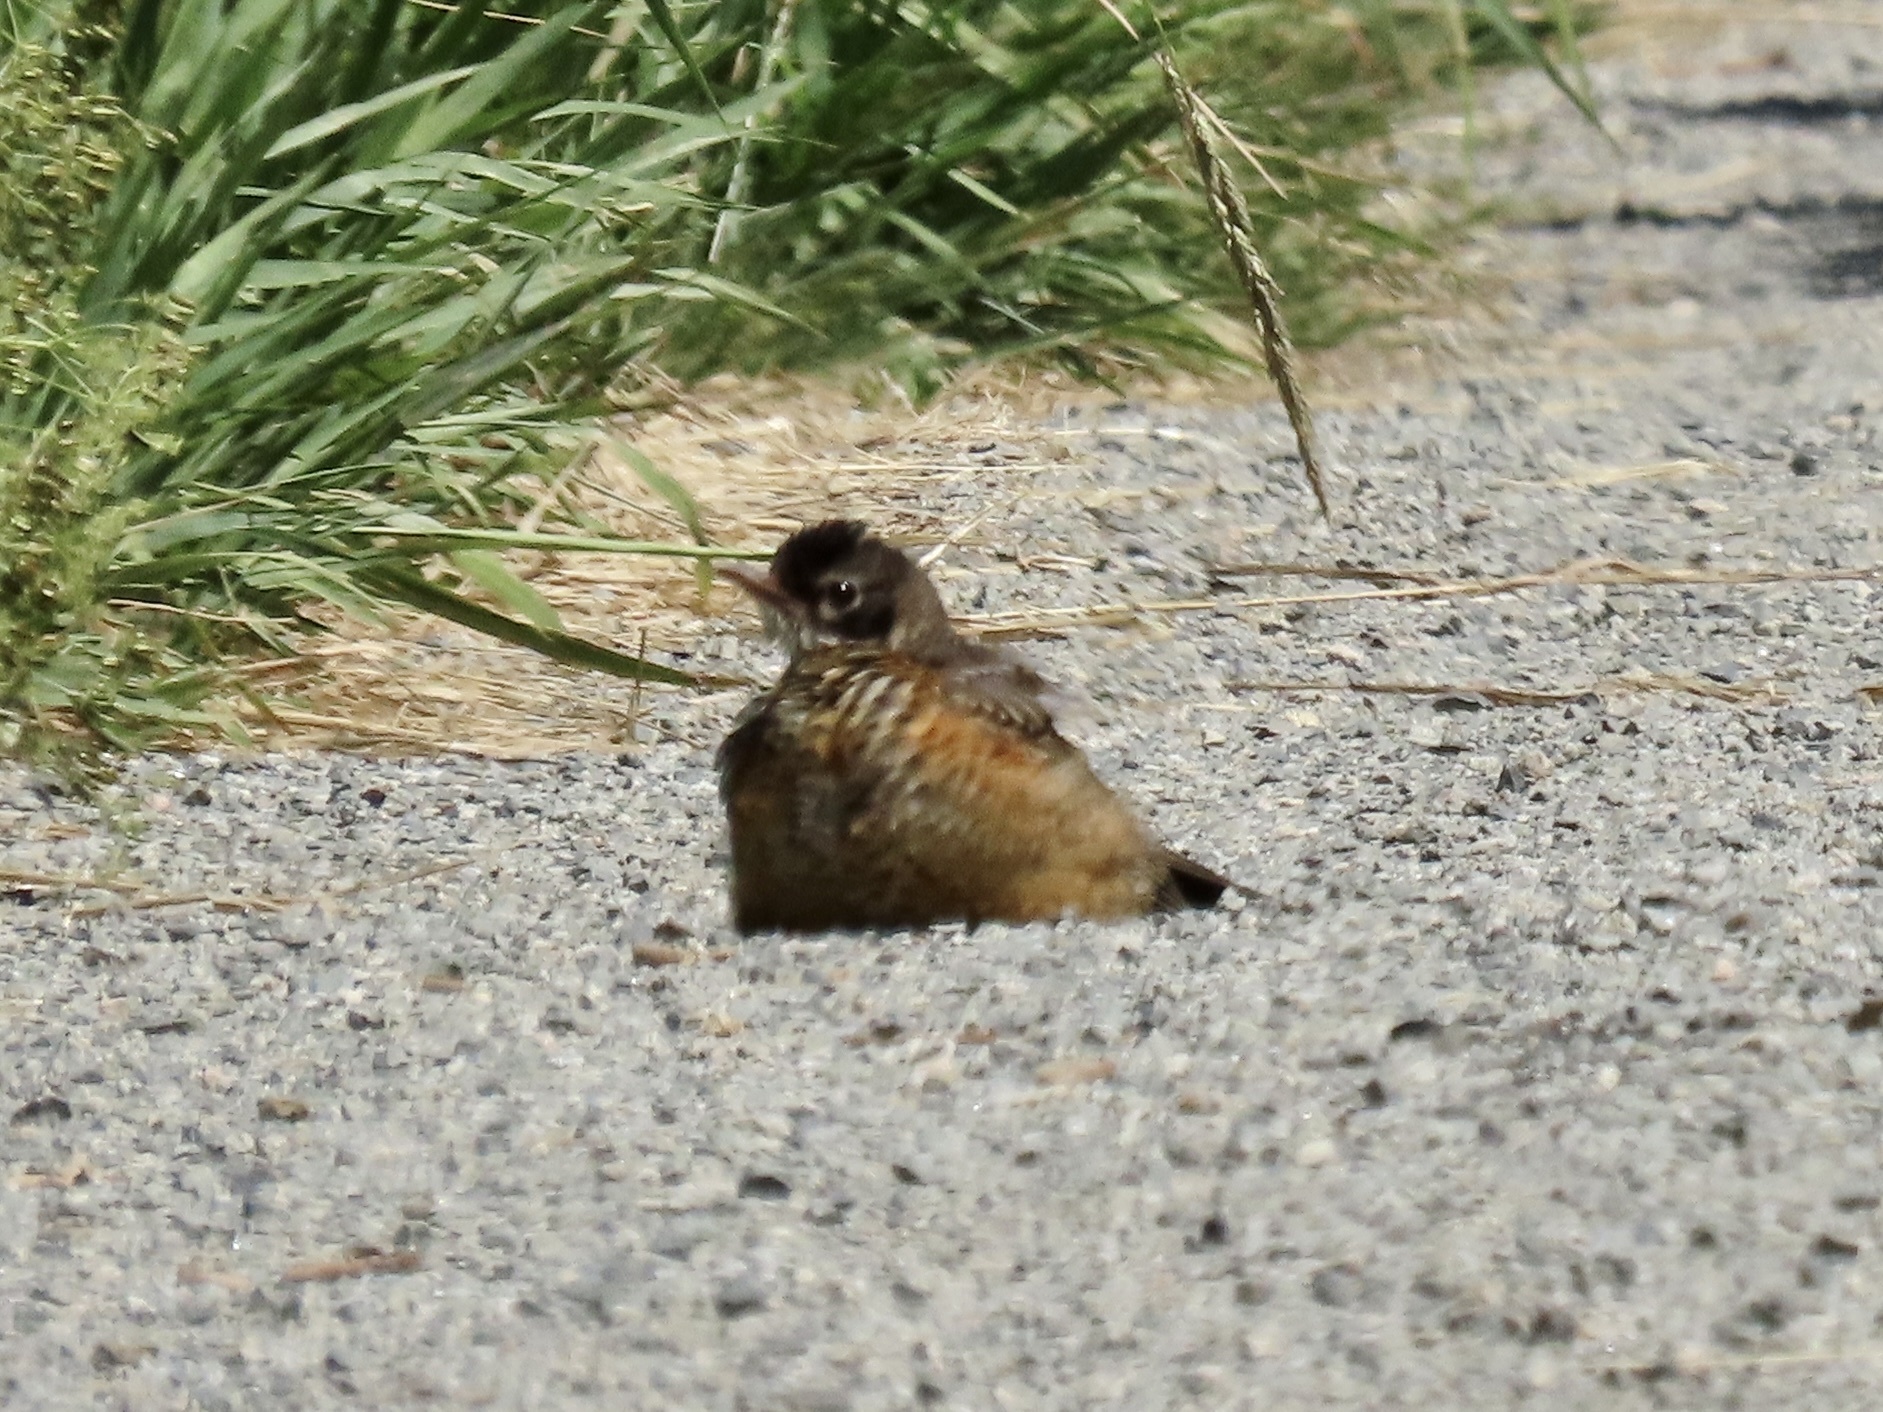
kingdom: Animalia
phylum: Chordata
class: Aves
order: Passeriformes
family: Turdidae
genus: Turdus
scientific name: Turdus migratorius
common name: American robin
